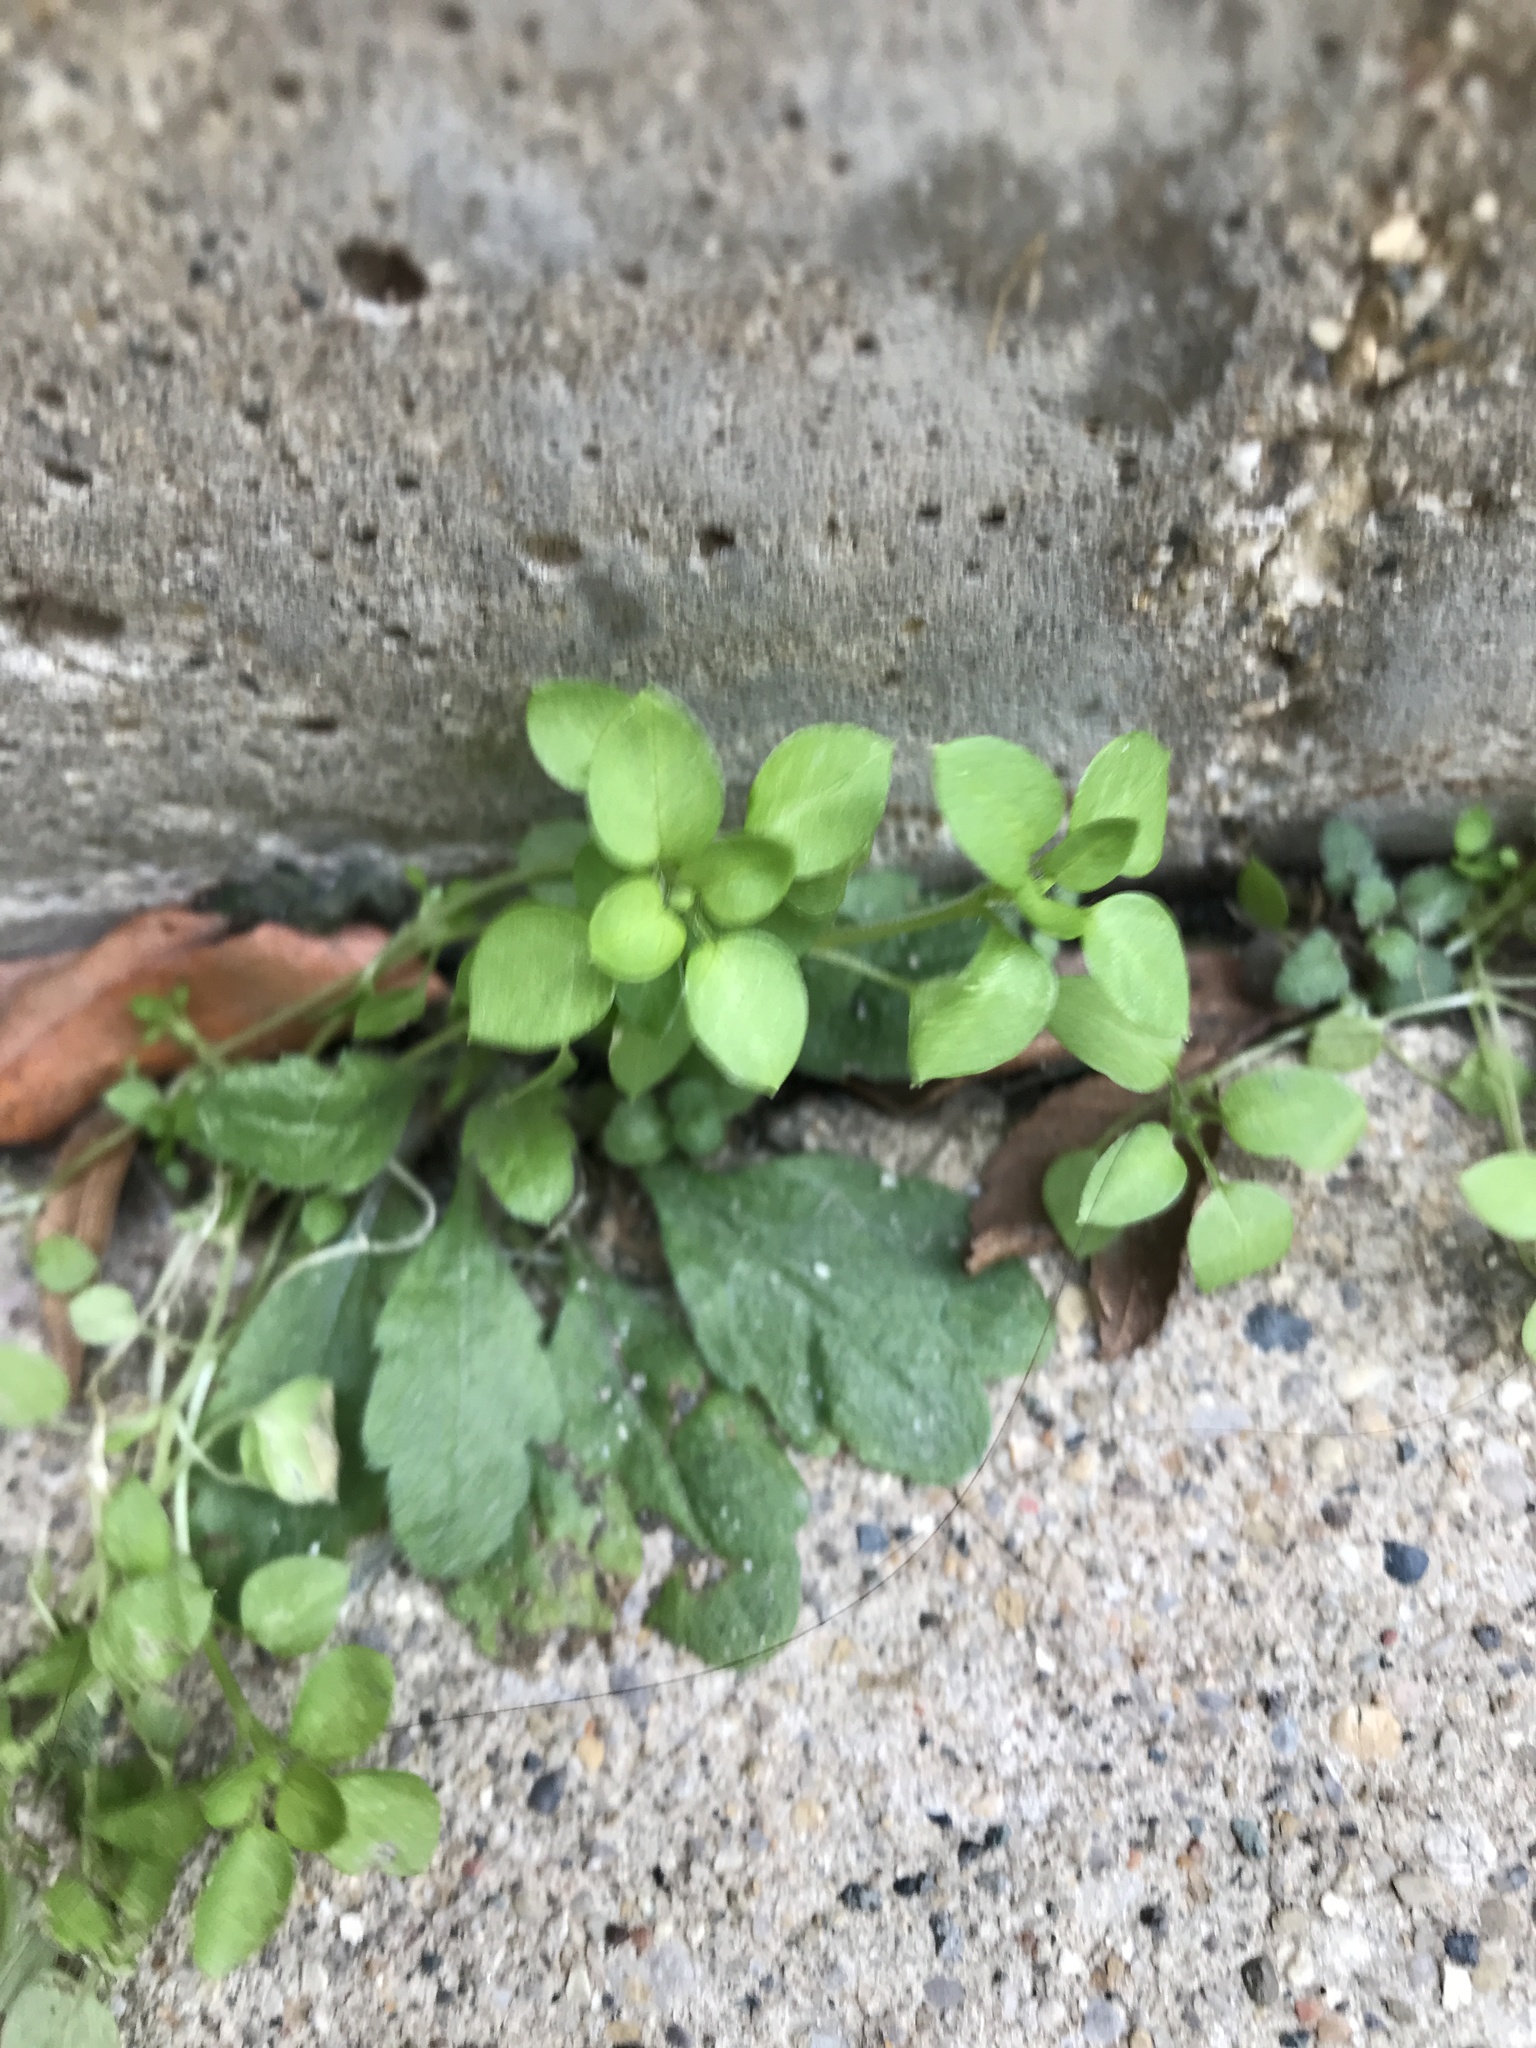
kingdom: Plantae
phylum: Tracheophyta
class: Magnoliopsida
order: Caryophyllales
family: Caryophyllaceae
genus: Stellaria
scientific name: Stellaria media
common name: Common chickweed
